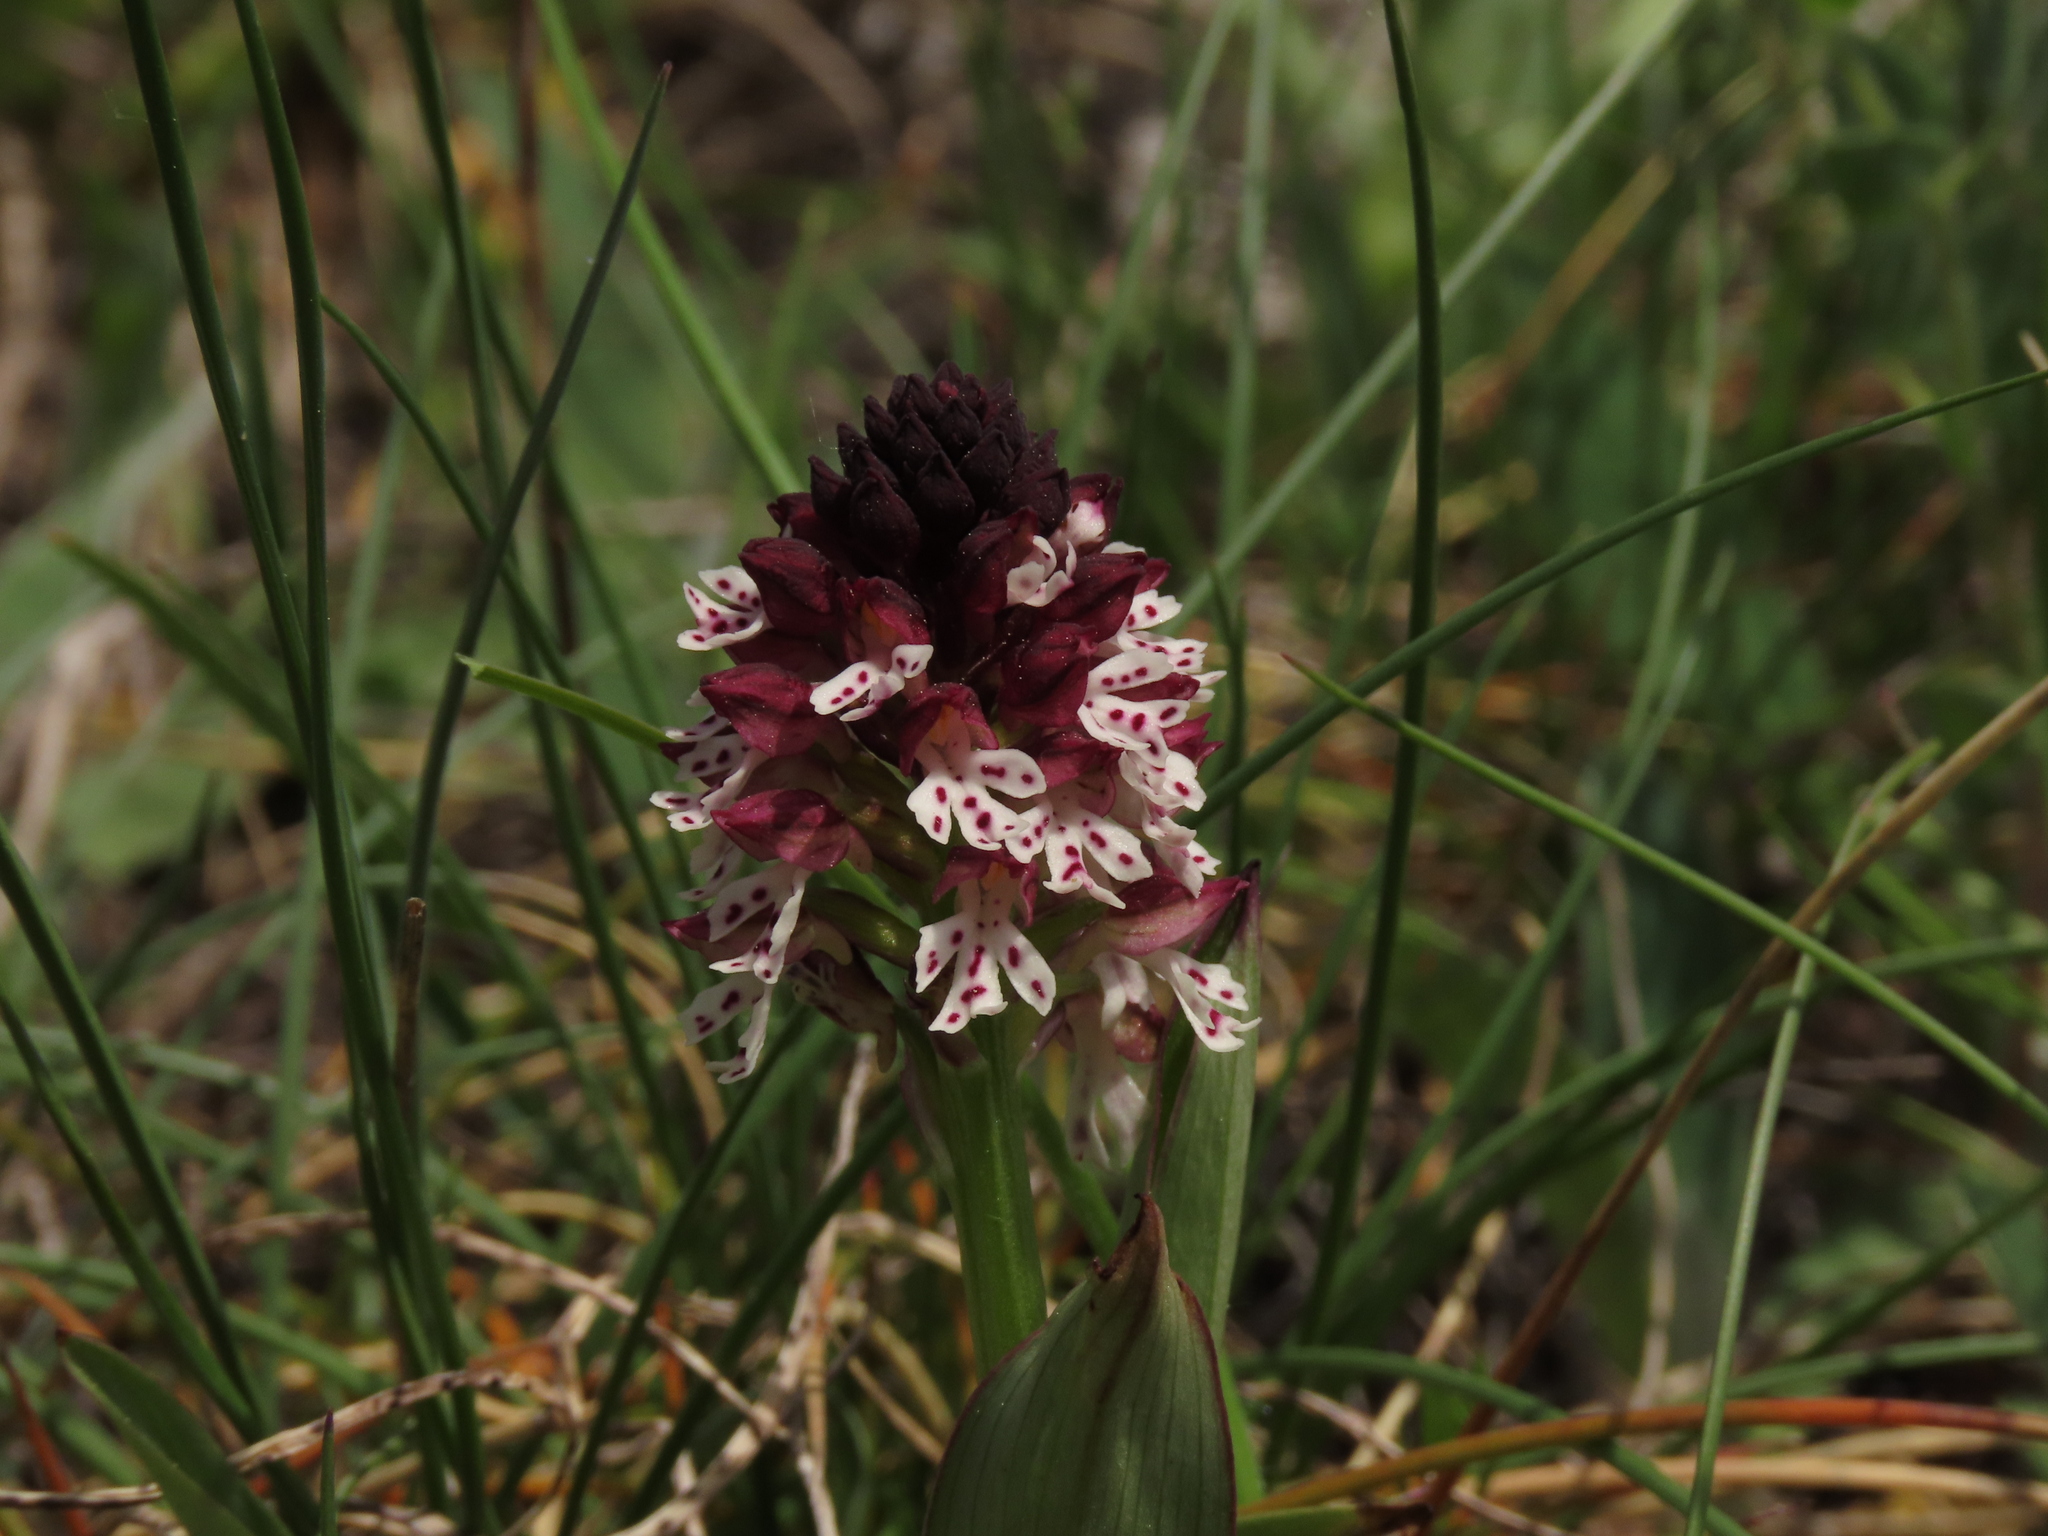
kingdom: Plantae
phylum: Tracheophyta
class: Liliopsida
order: Asparagales
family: Orchidaceae
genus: Neotinea
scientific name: Neotinea ustulata
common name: Burnt orchid
